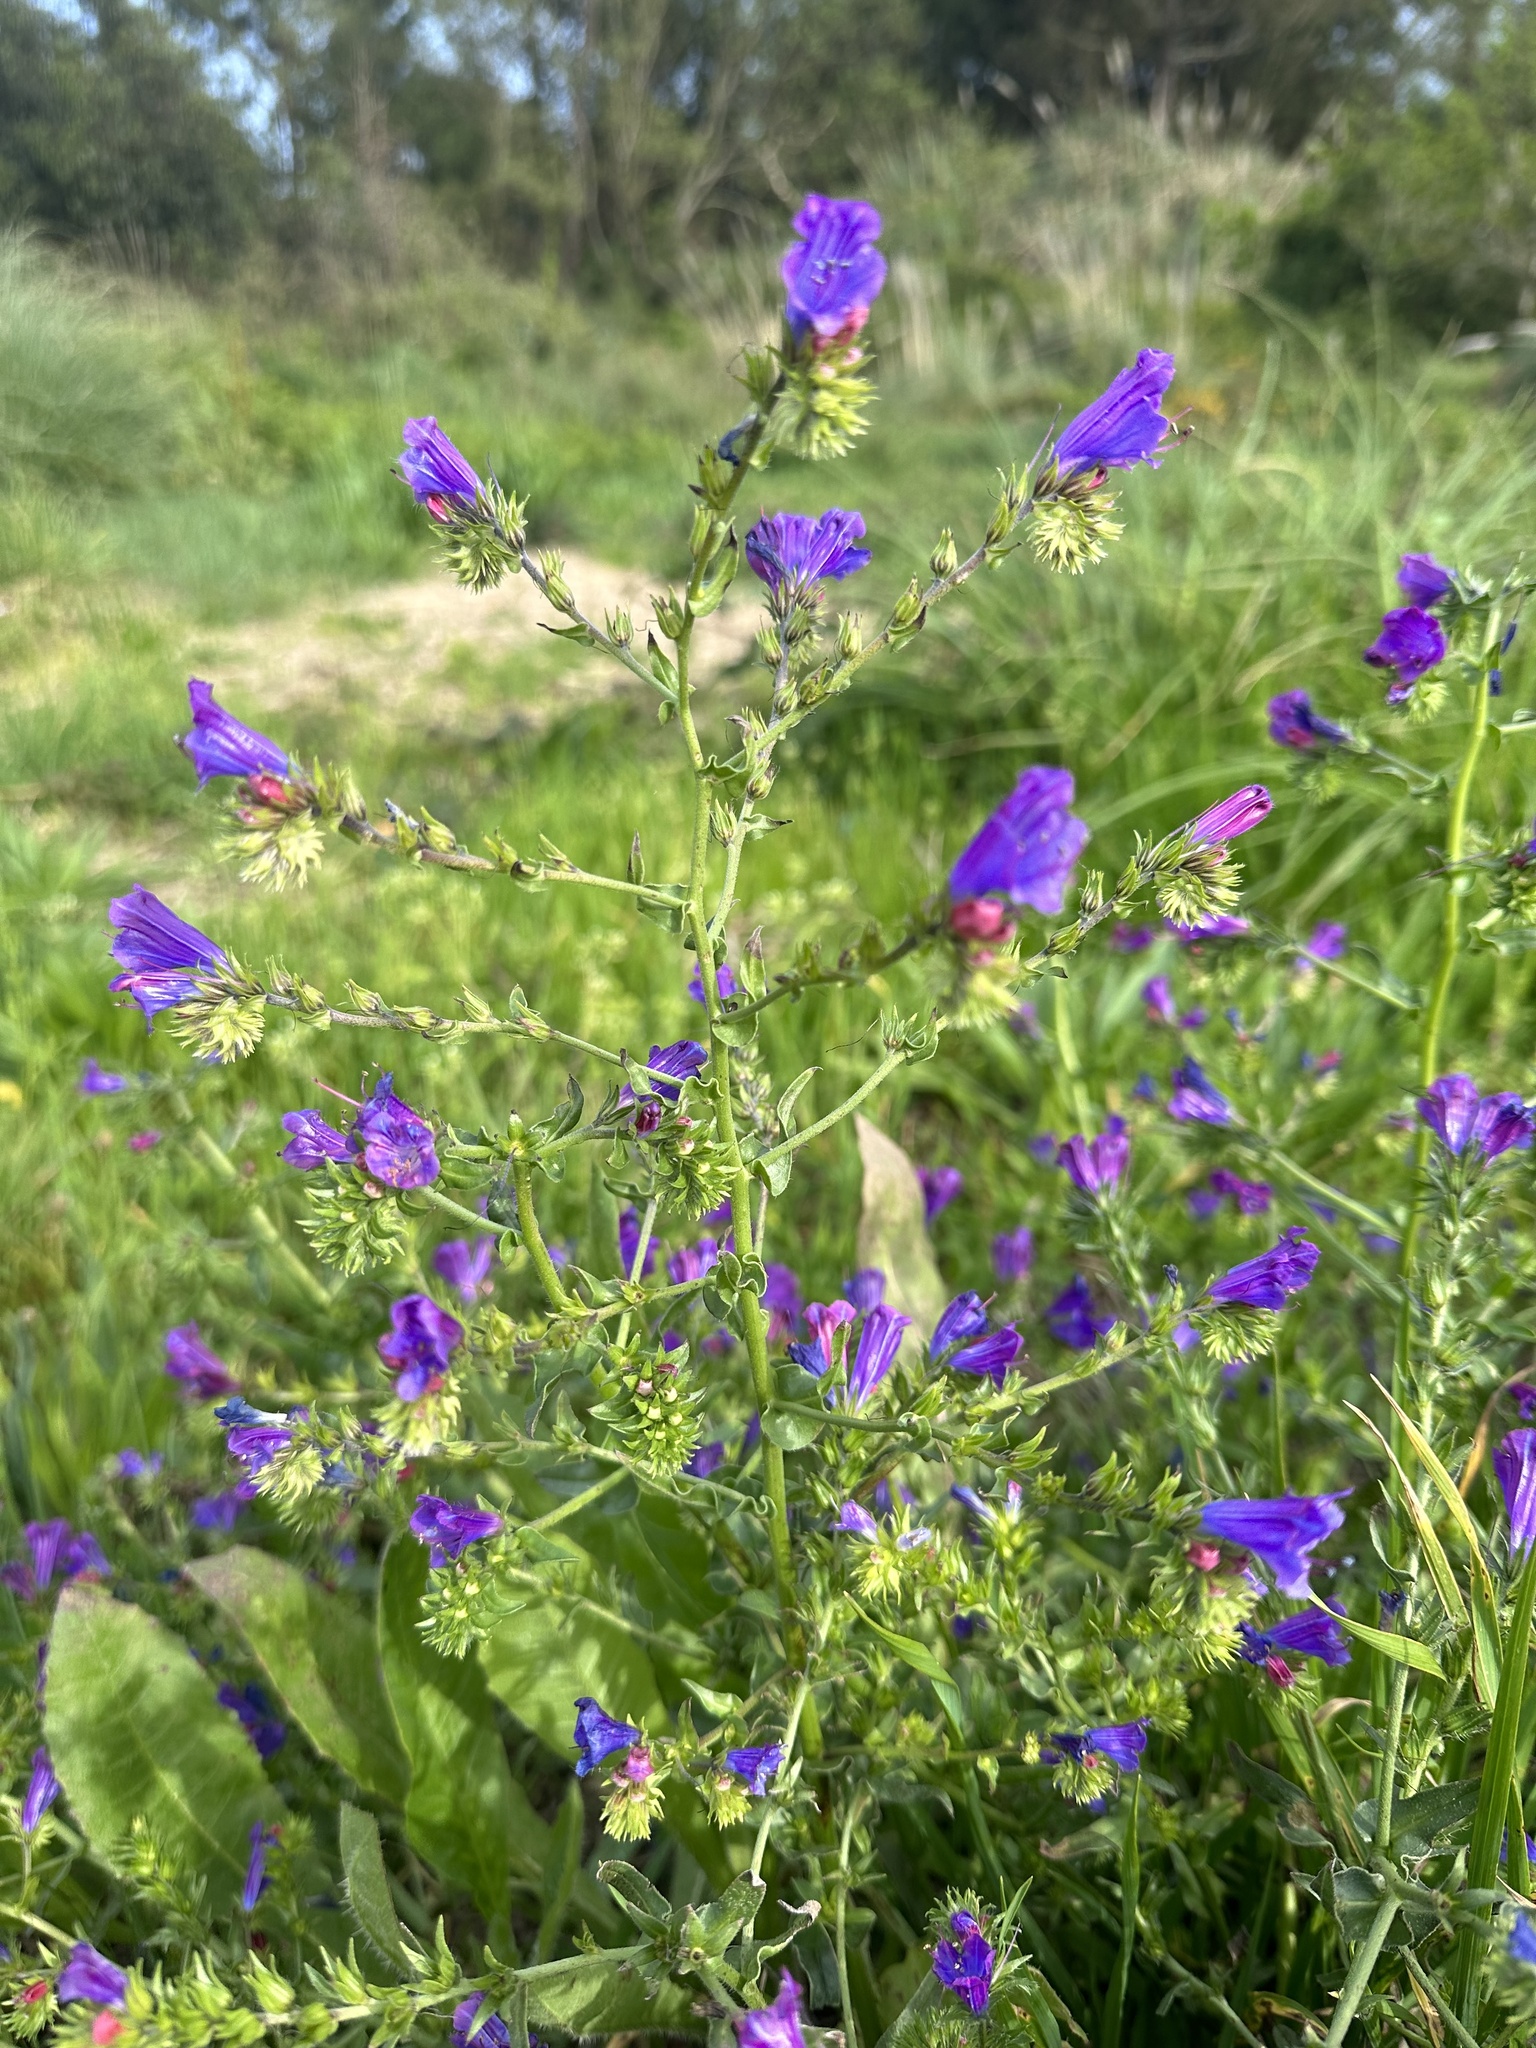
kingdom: Plantae
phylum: Tracheophyta
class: Magnoliopsida
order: Boraginales
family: Boraginaceae
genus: Echium
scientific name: Echium plantagineum
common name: Purple viper's-bugloss
